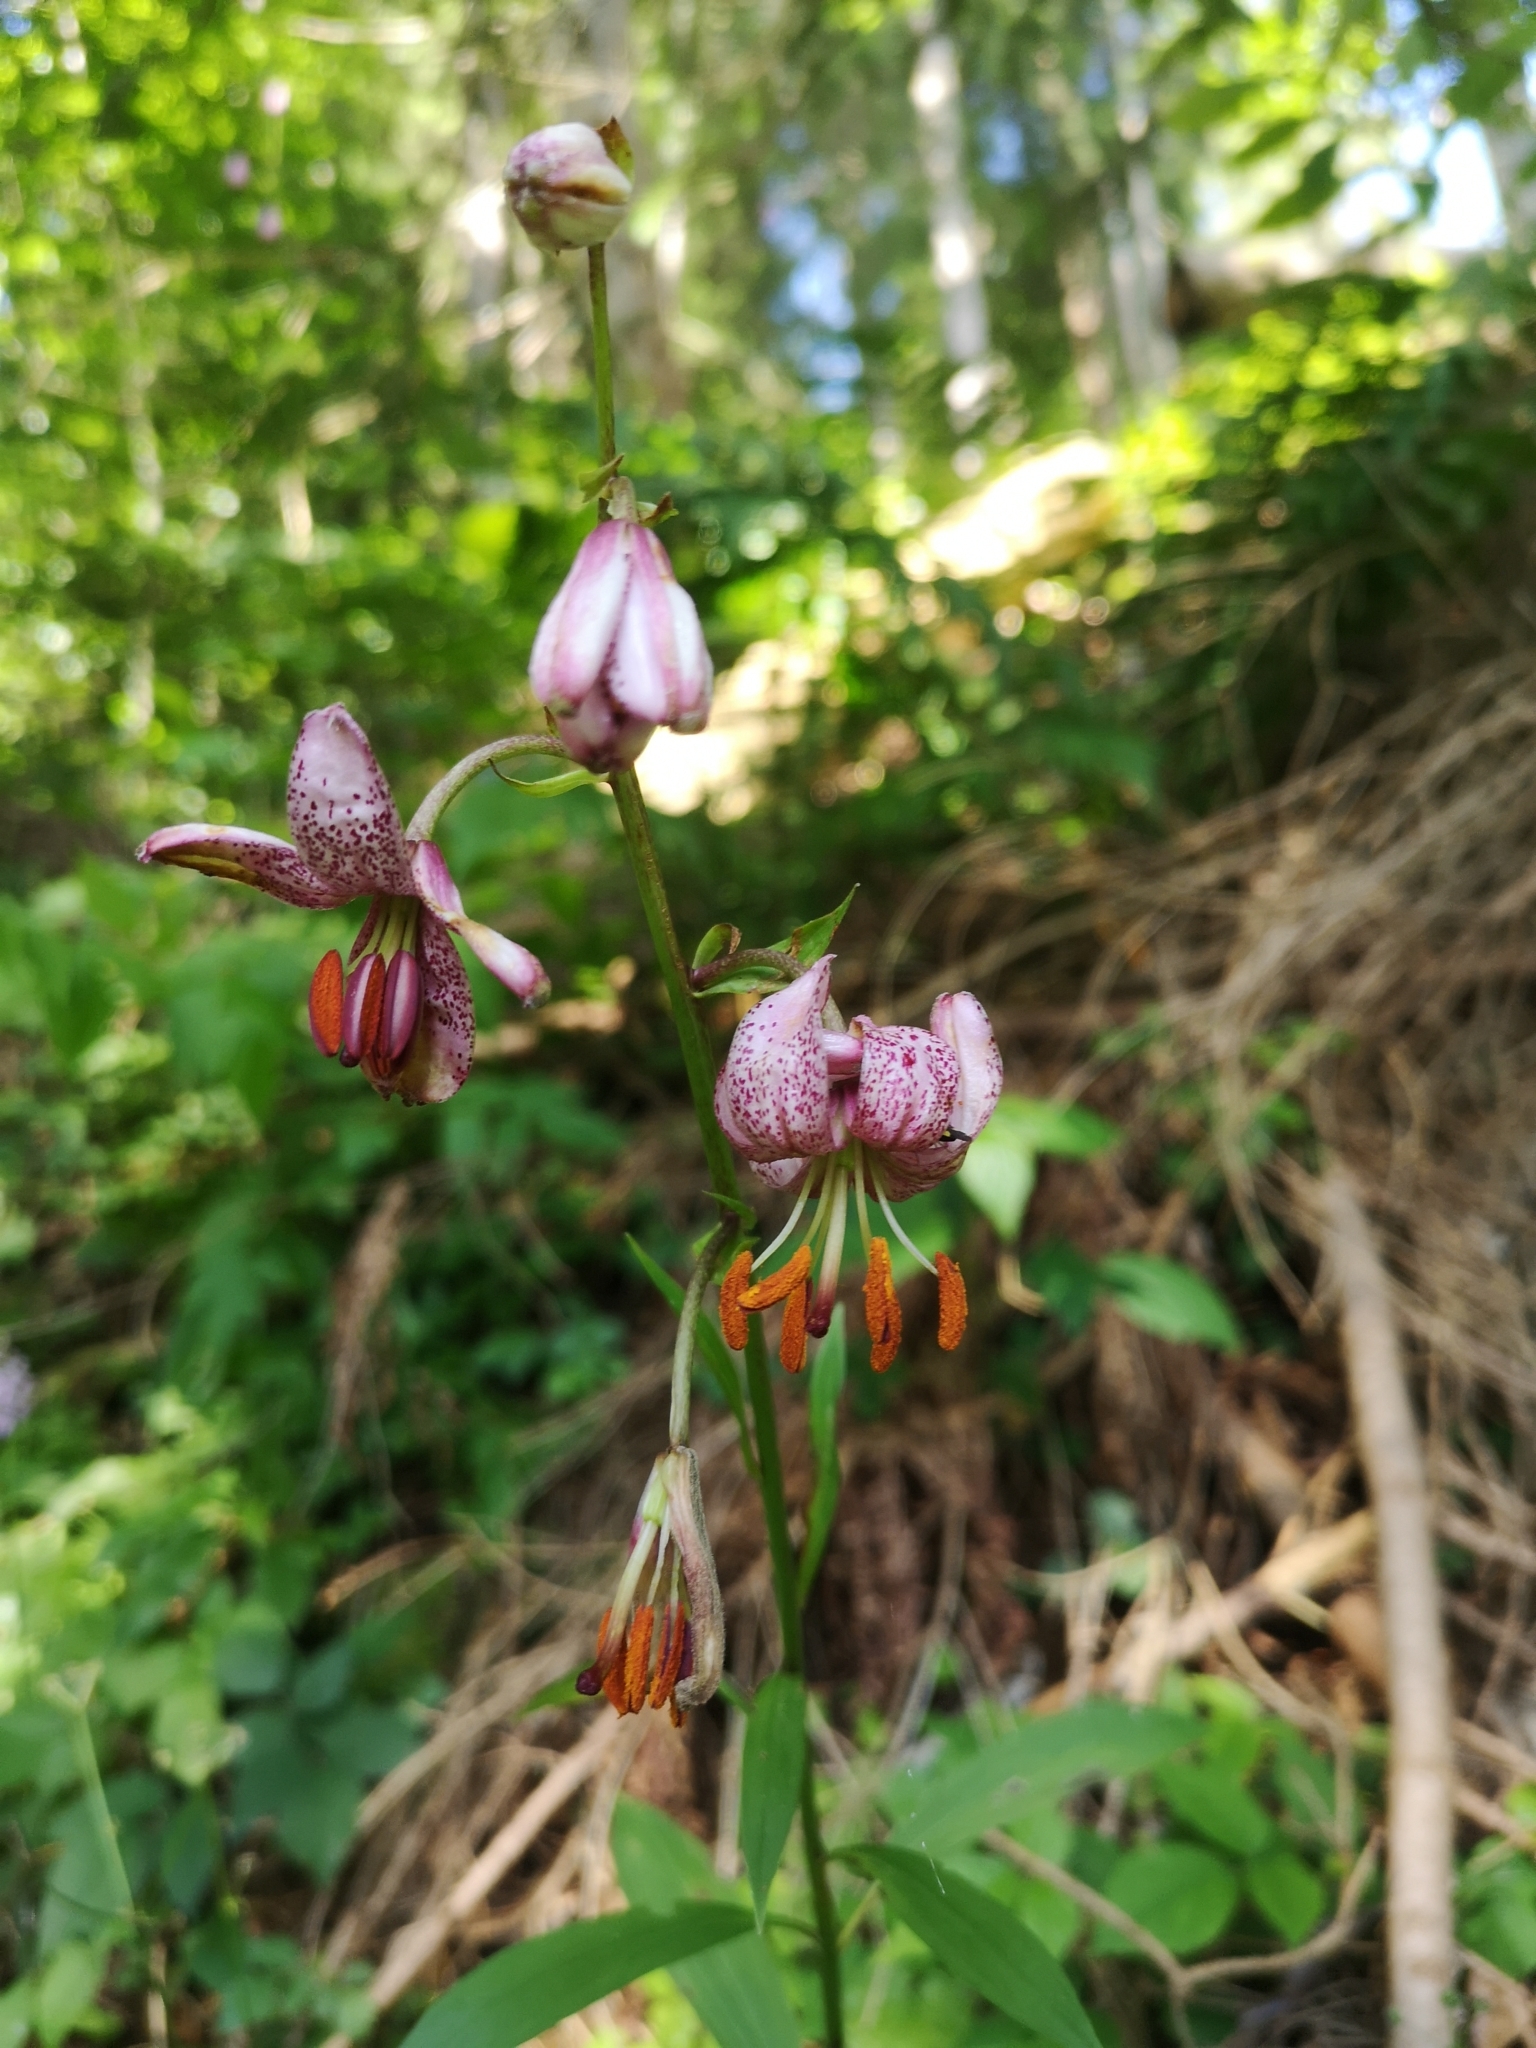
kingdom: Plantae
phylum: Tracheophyta
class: Liliopsida
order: Liliales
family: Liliaceae
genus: Lilium
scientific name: Lilium martagon
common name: Martagon lily
